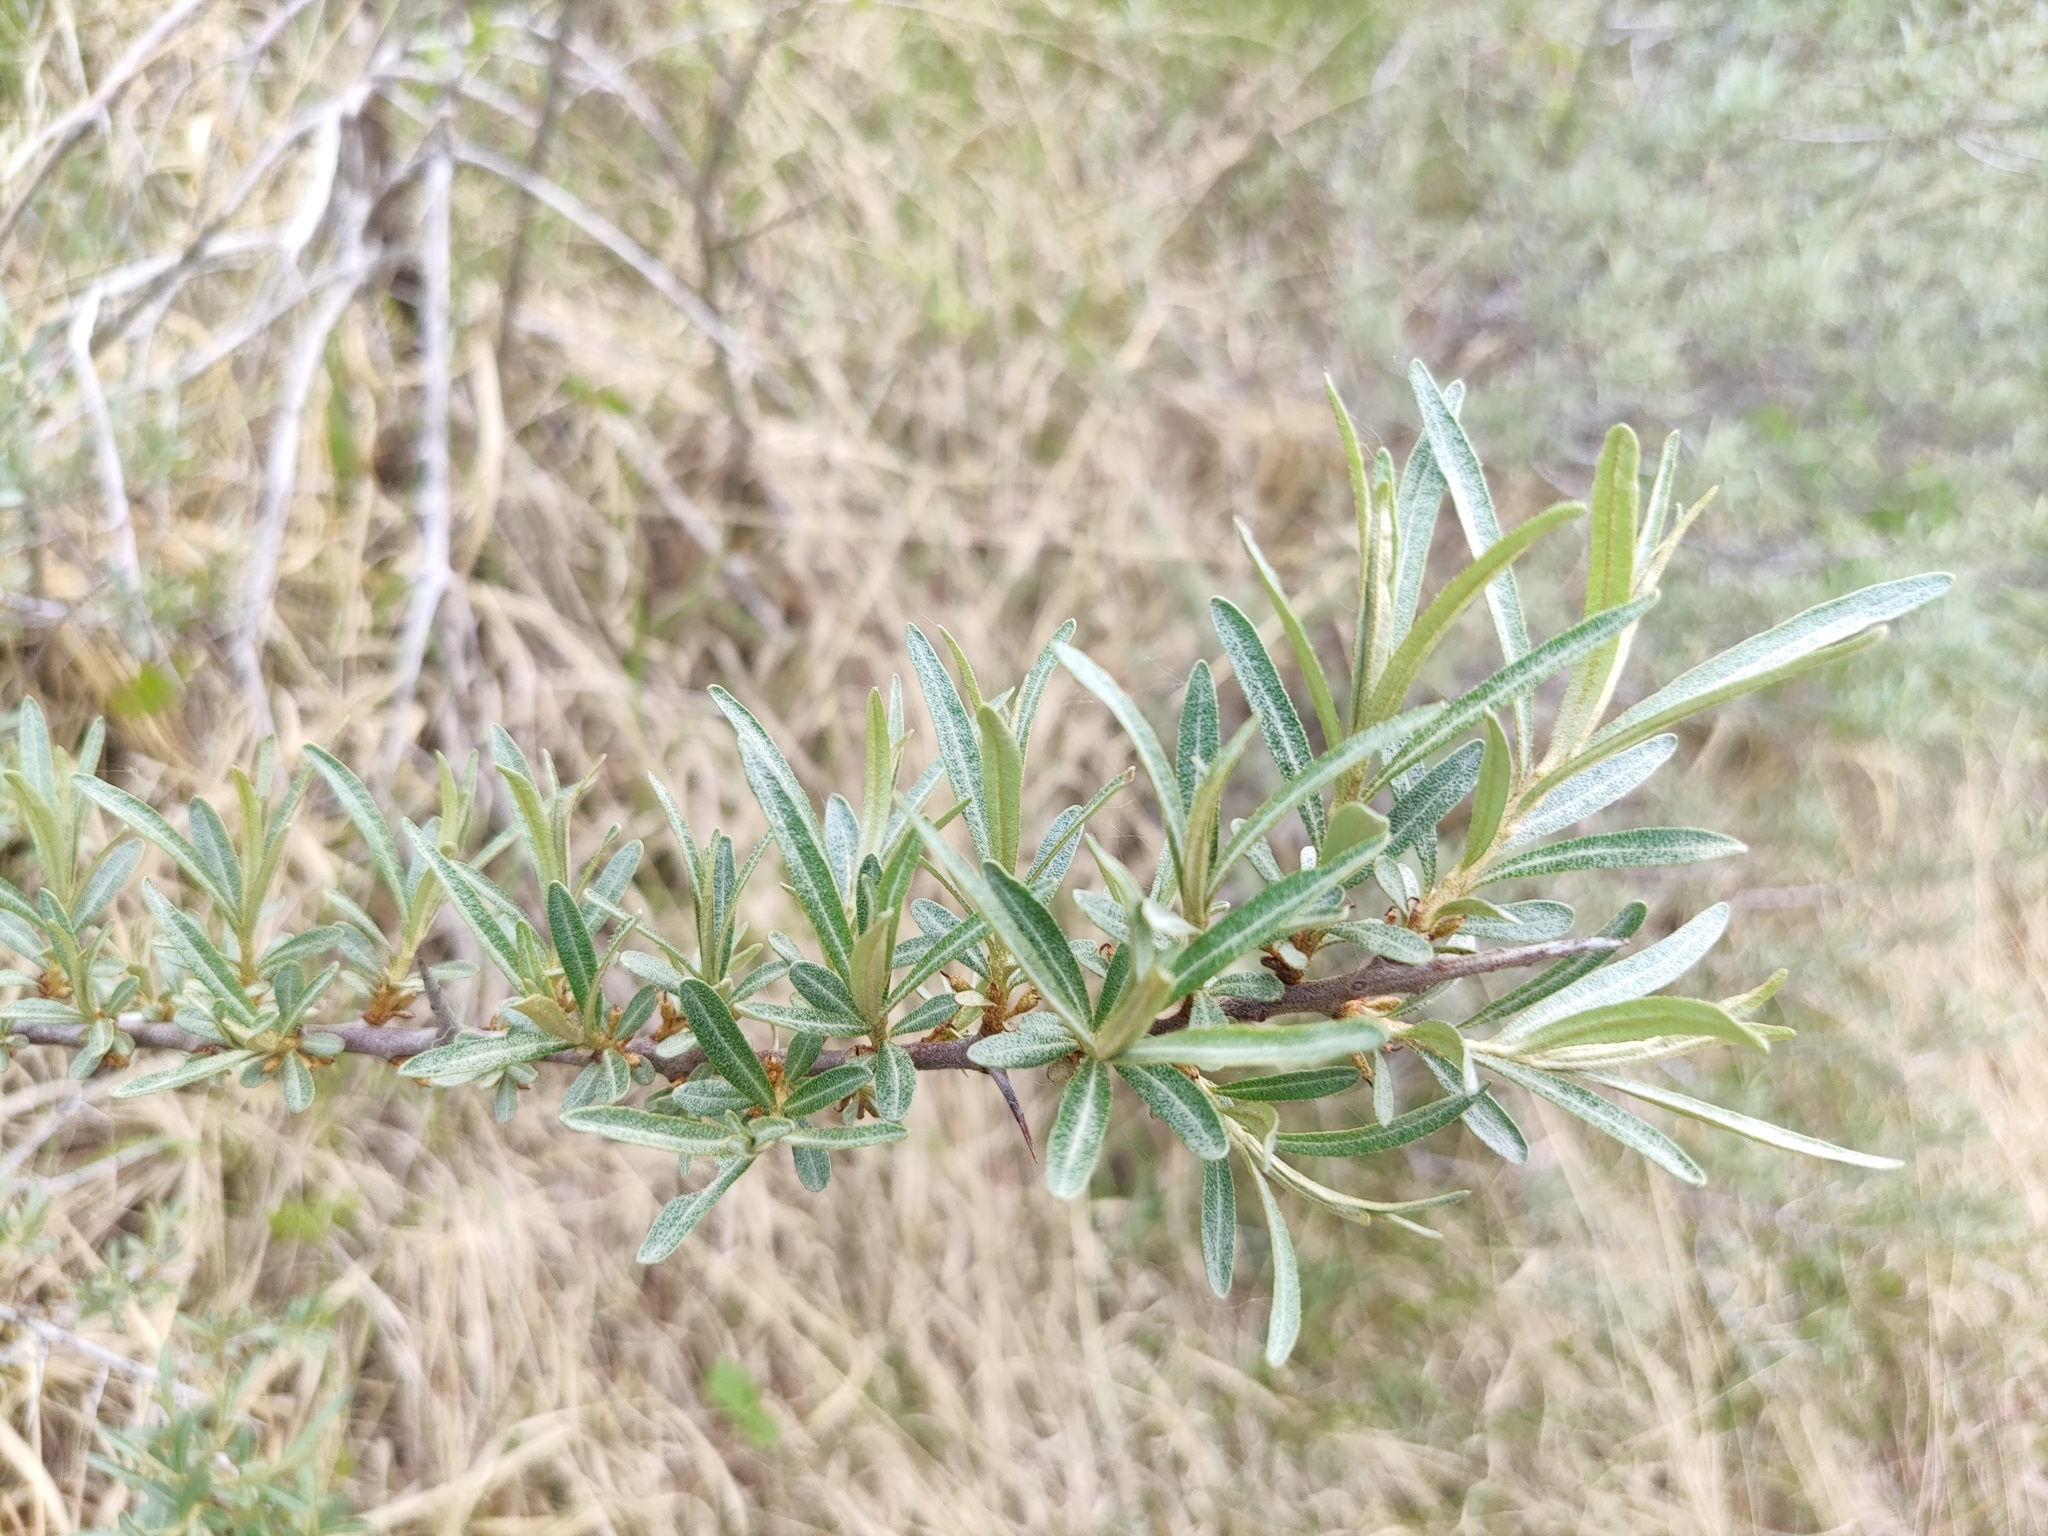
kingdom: Plantae
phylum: Tracheophyta
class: Magnoliopsida
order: Rosales
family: Elaeagnaceae
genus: Hippophae
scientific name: Hippophae rhamnoides
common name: Sea-buckthorn
